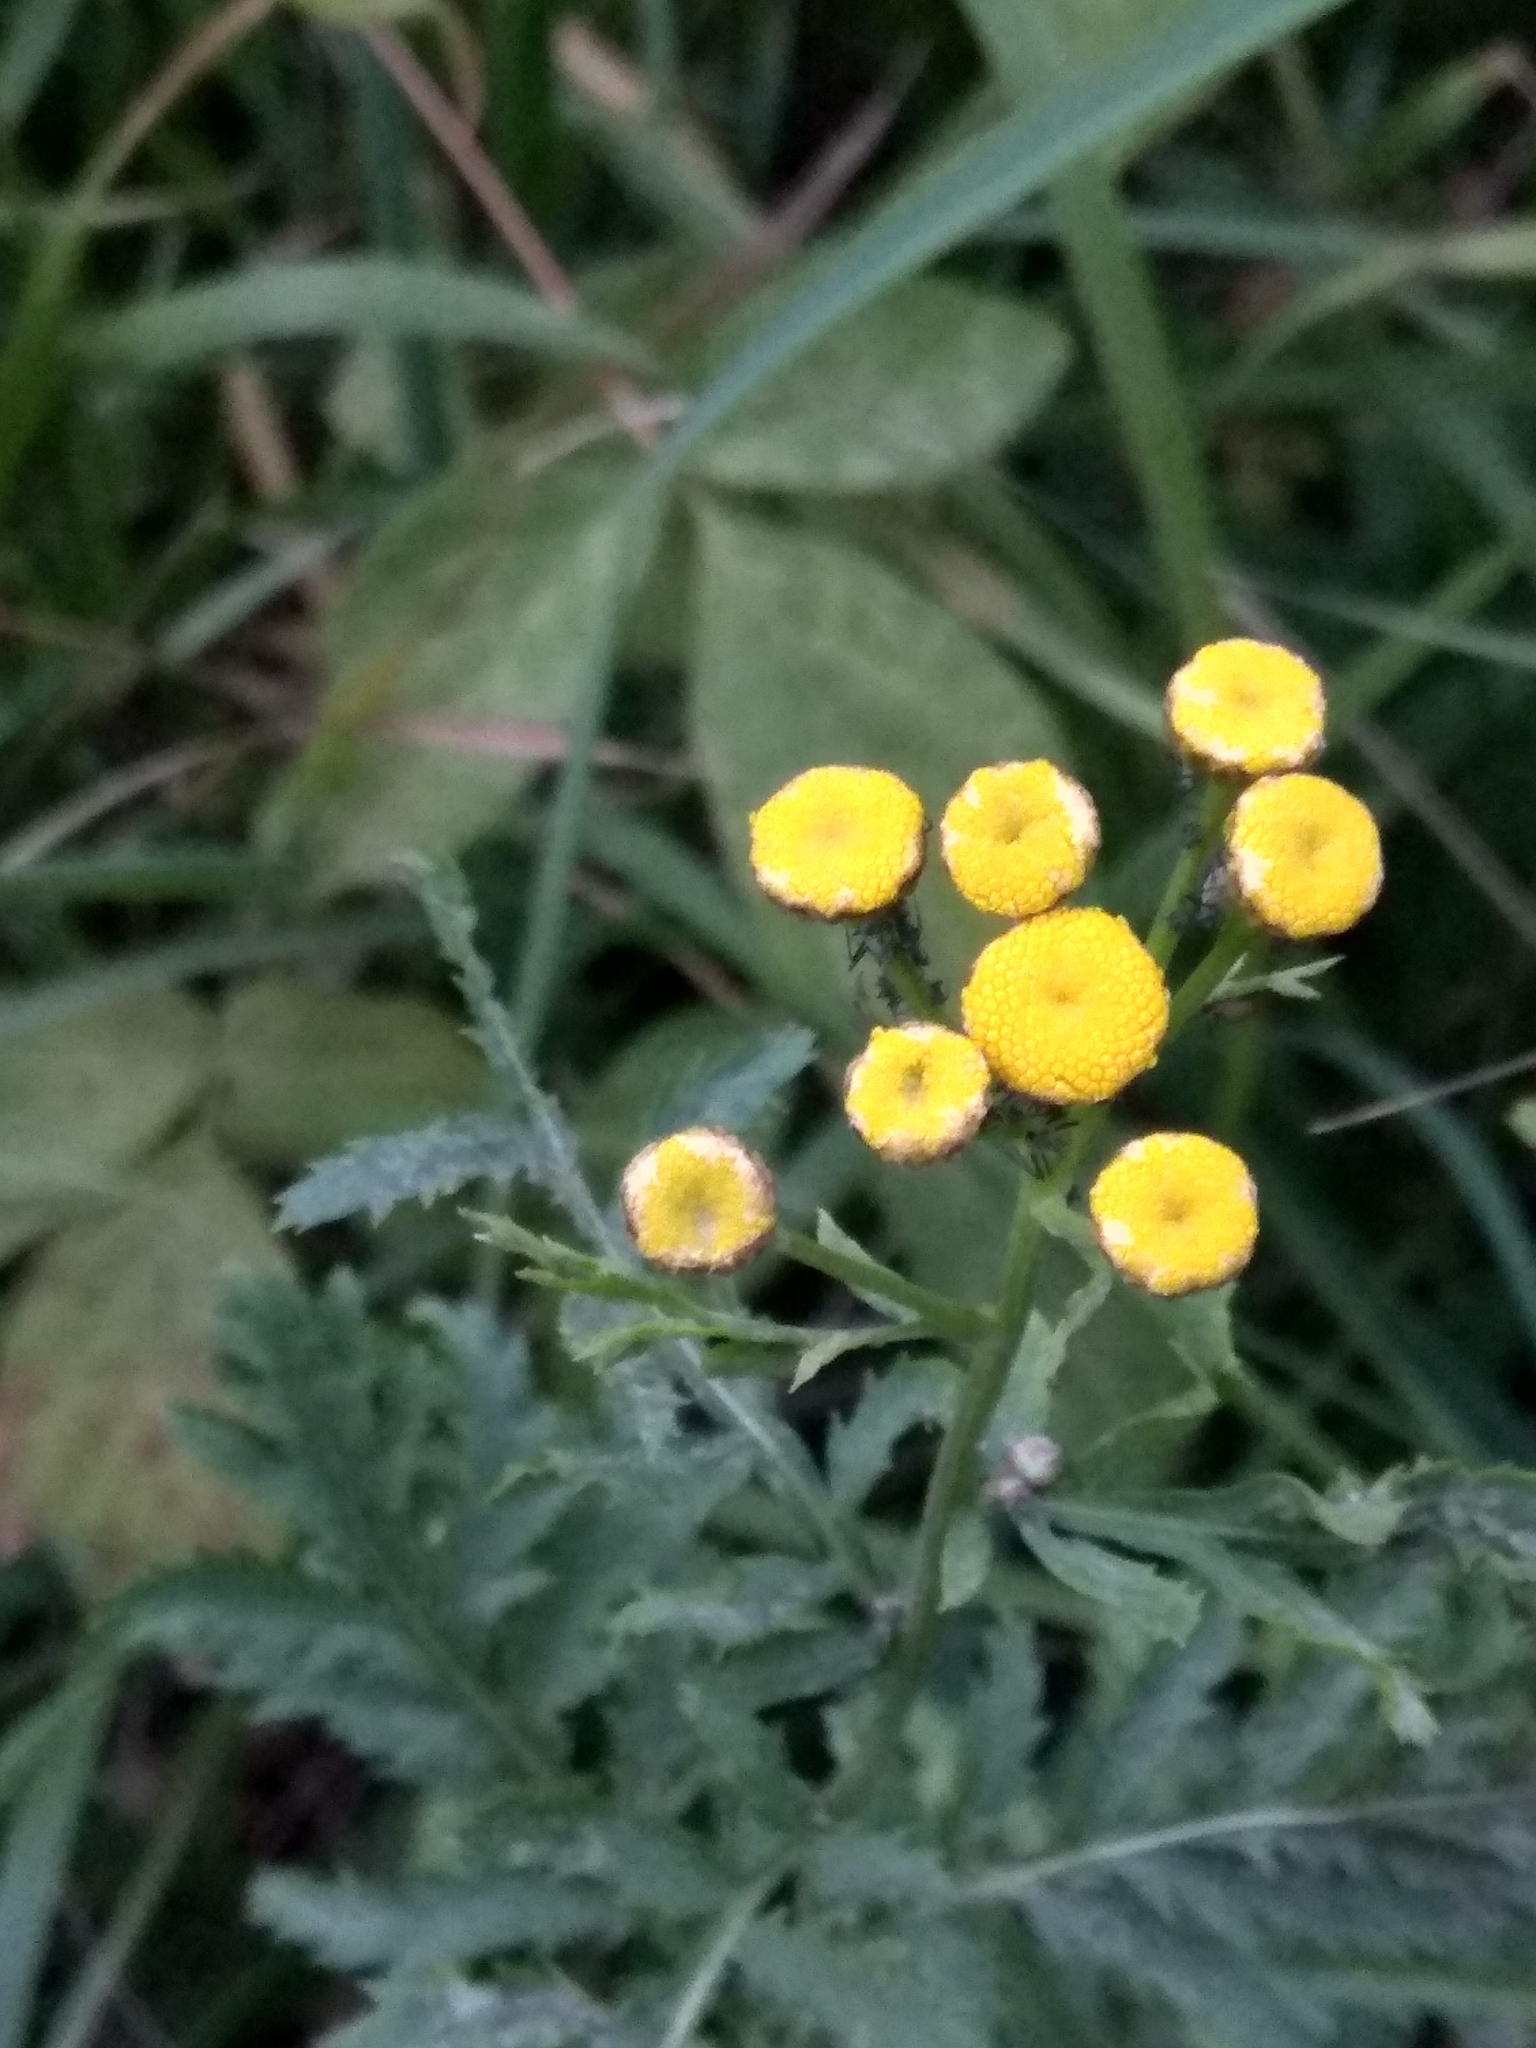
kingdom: Plantae
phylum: Tracheophyta
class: Magnoliopsida
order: Asterales
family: Asteraceae
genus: Tanacetum
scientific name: Tanacetum vulgare
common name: Common tansy
